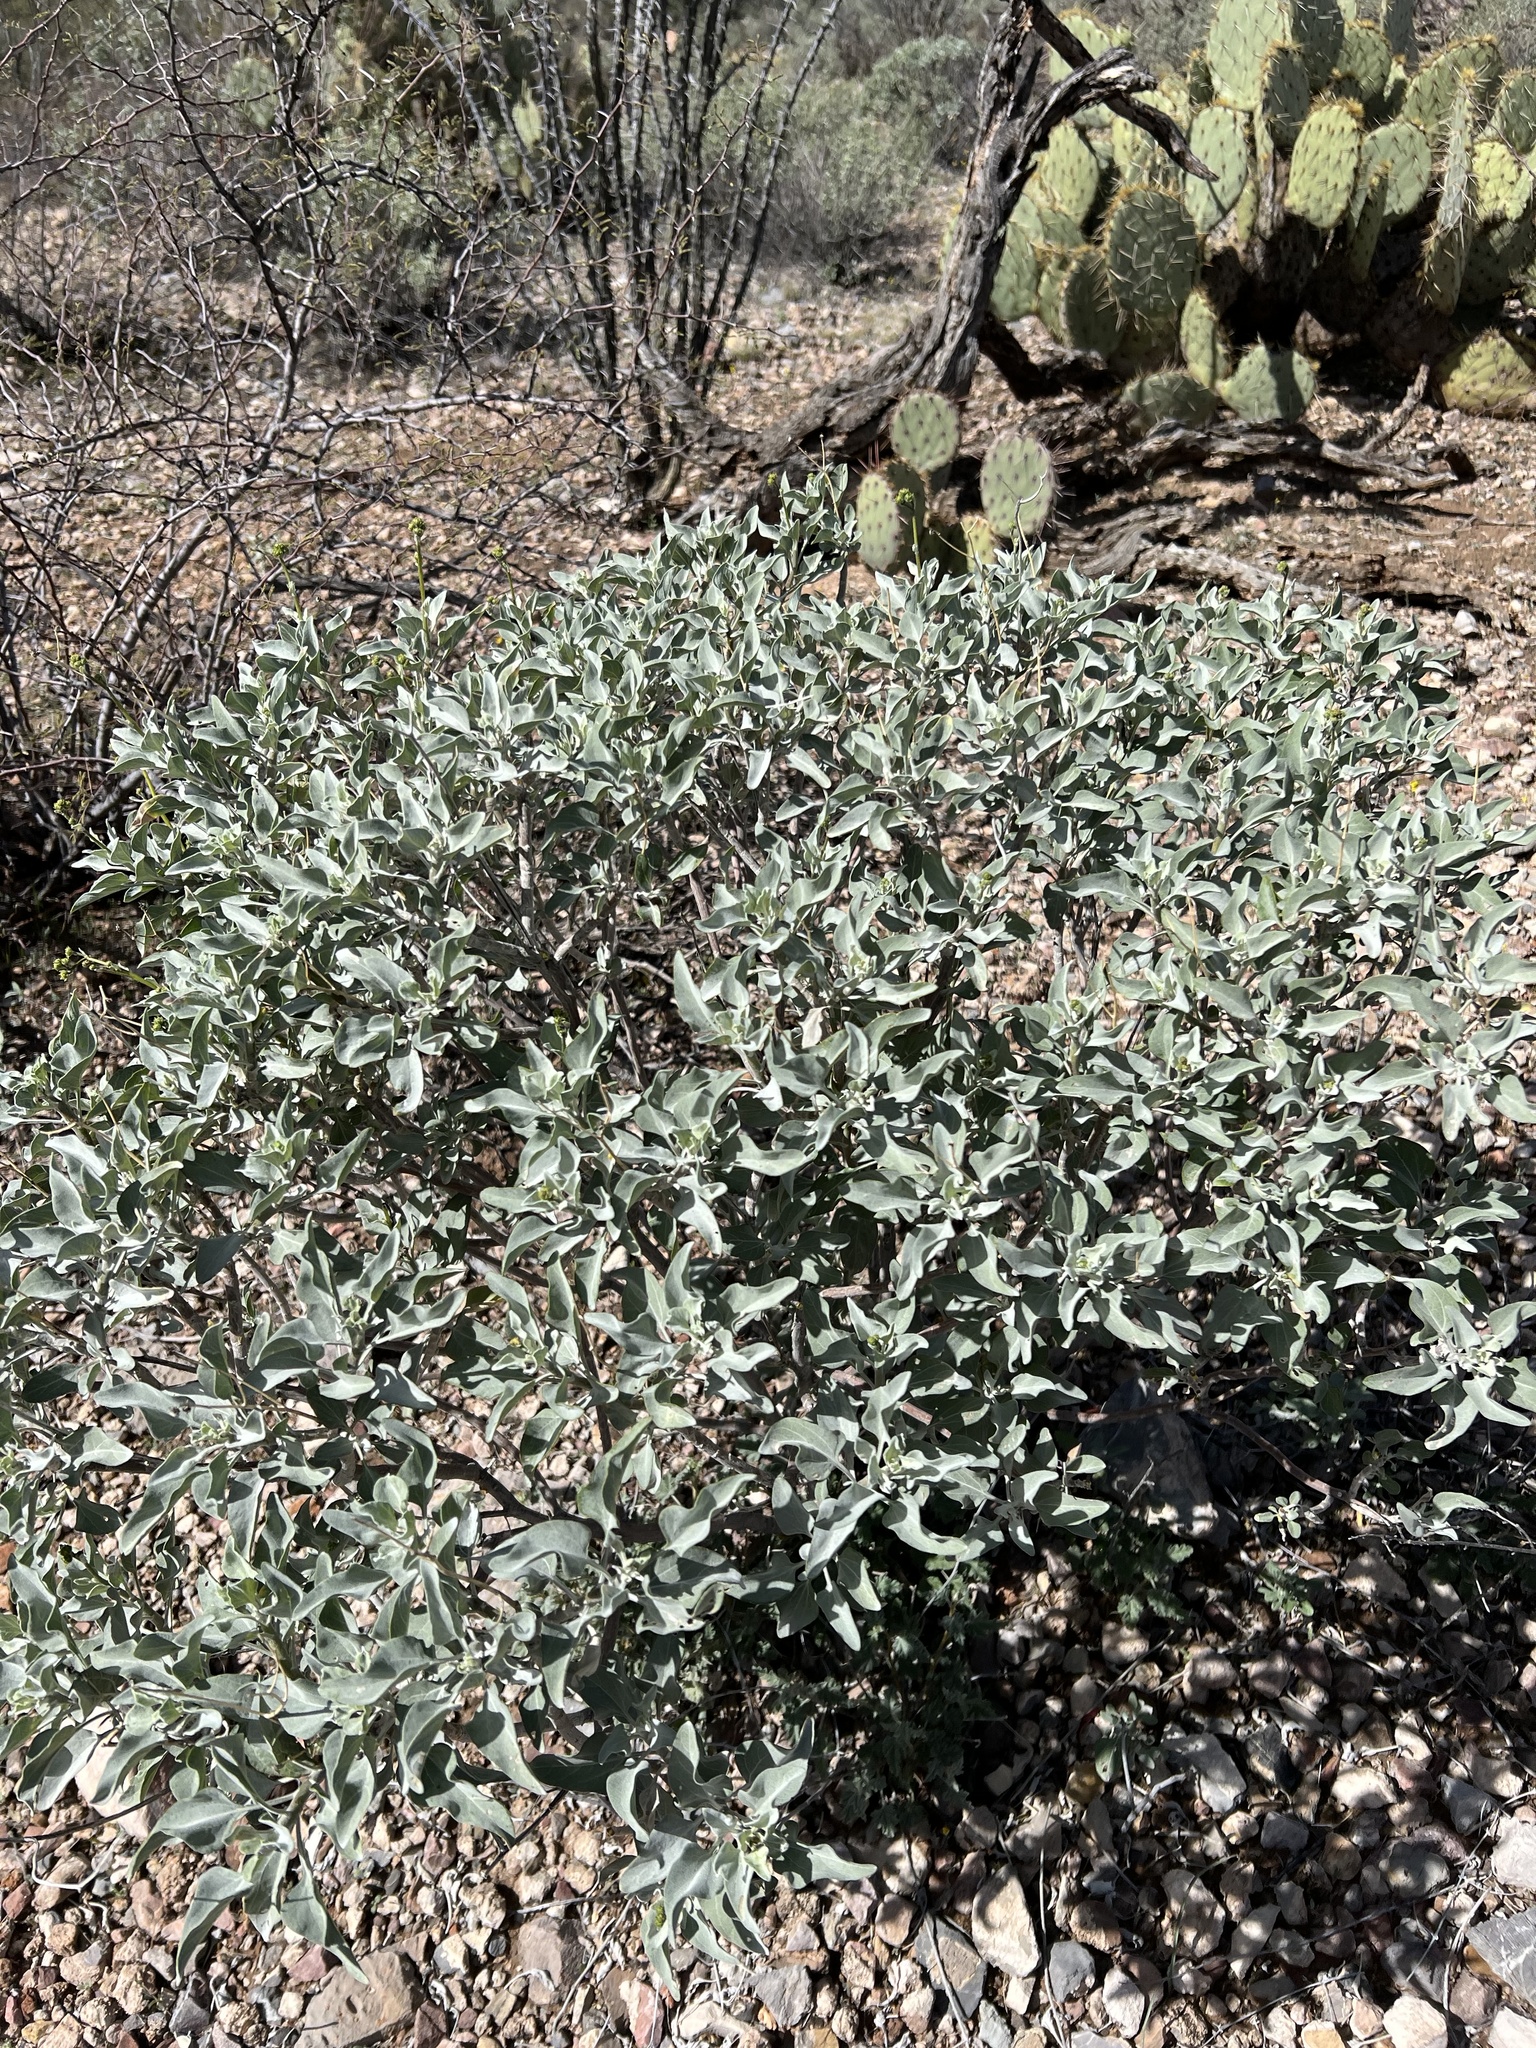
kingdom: Plantae
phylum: Tracheophyta
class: Magnoliopsida
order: Asterales
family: Asteraceae
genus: Encelia
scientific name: Encelia farinosa
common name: Brittlebush
